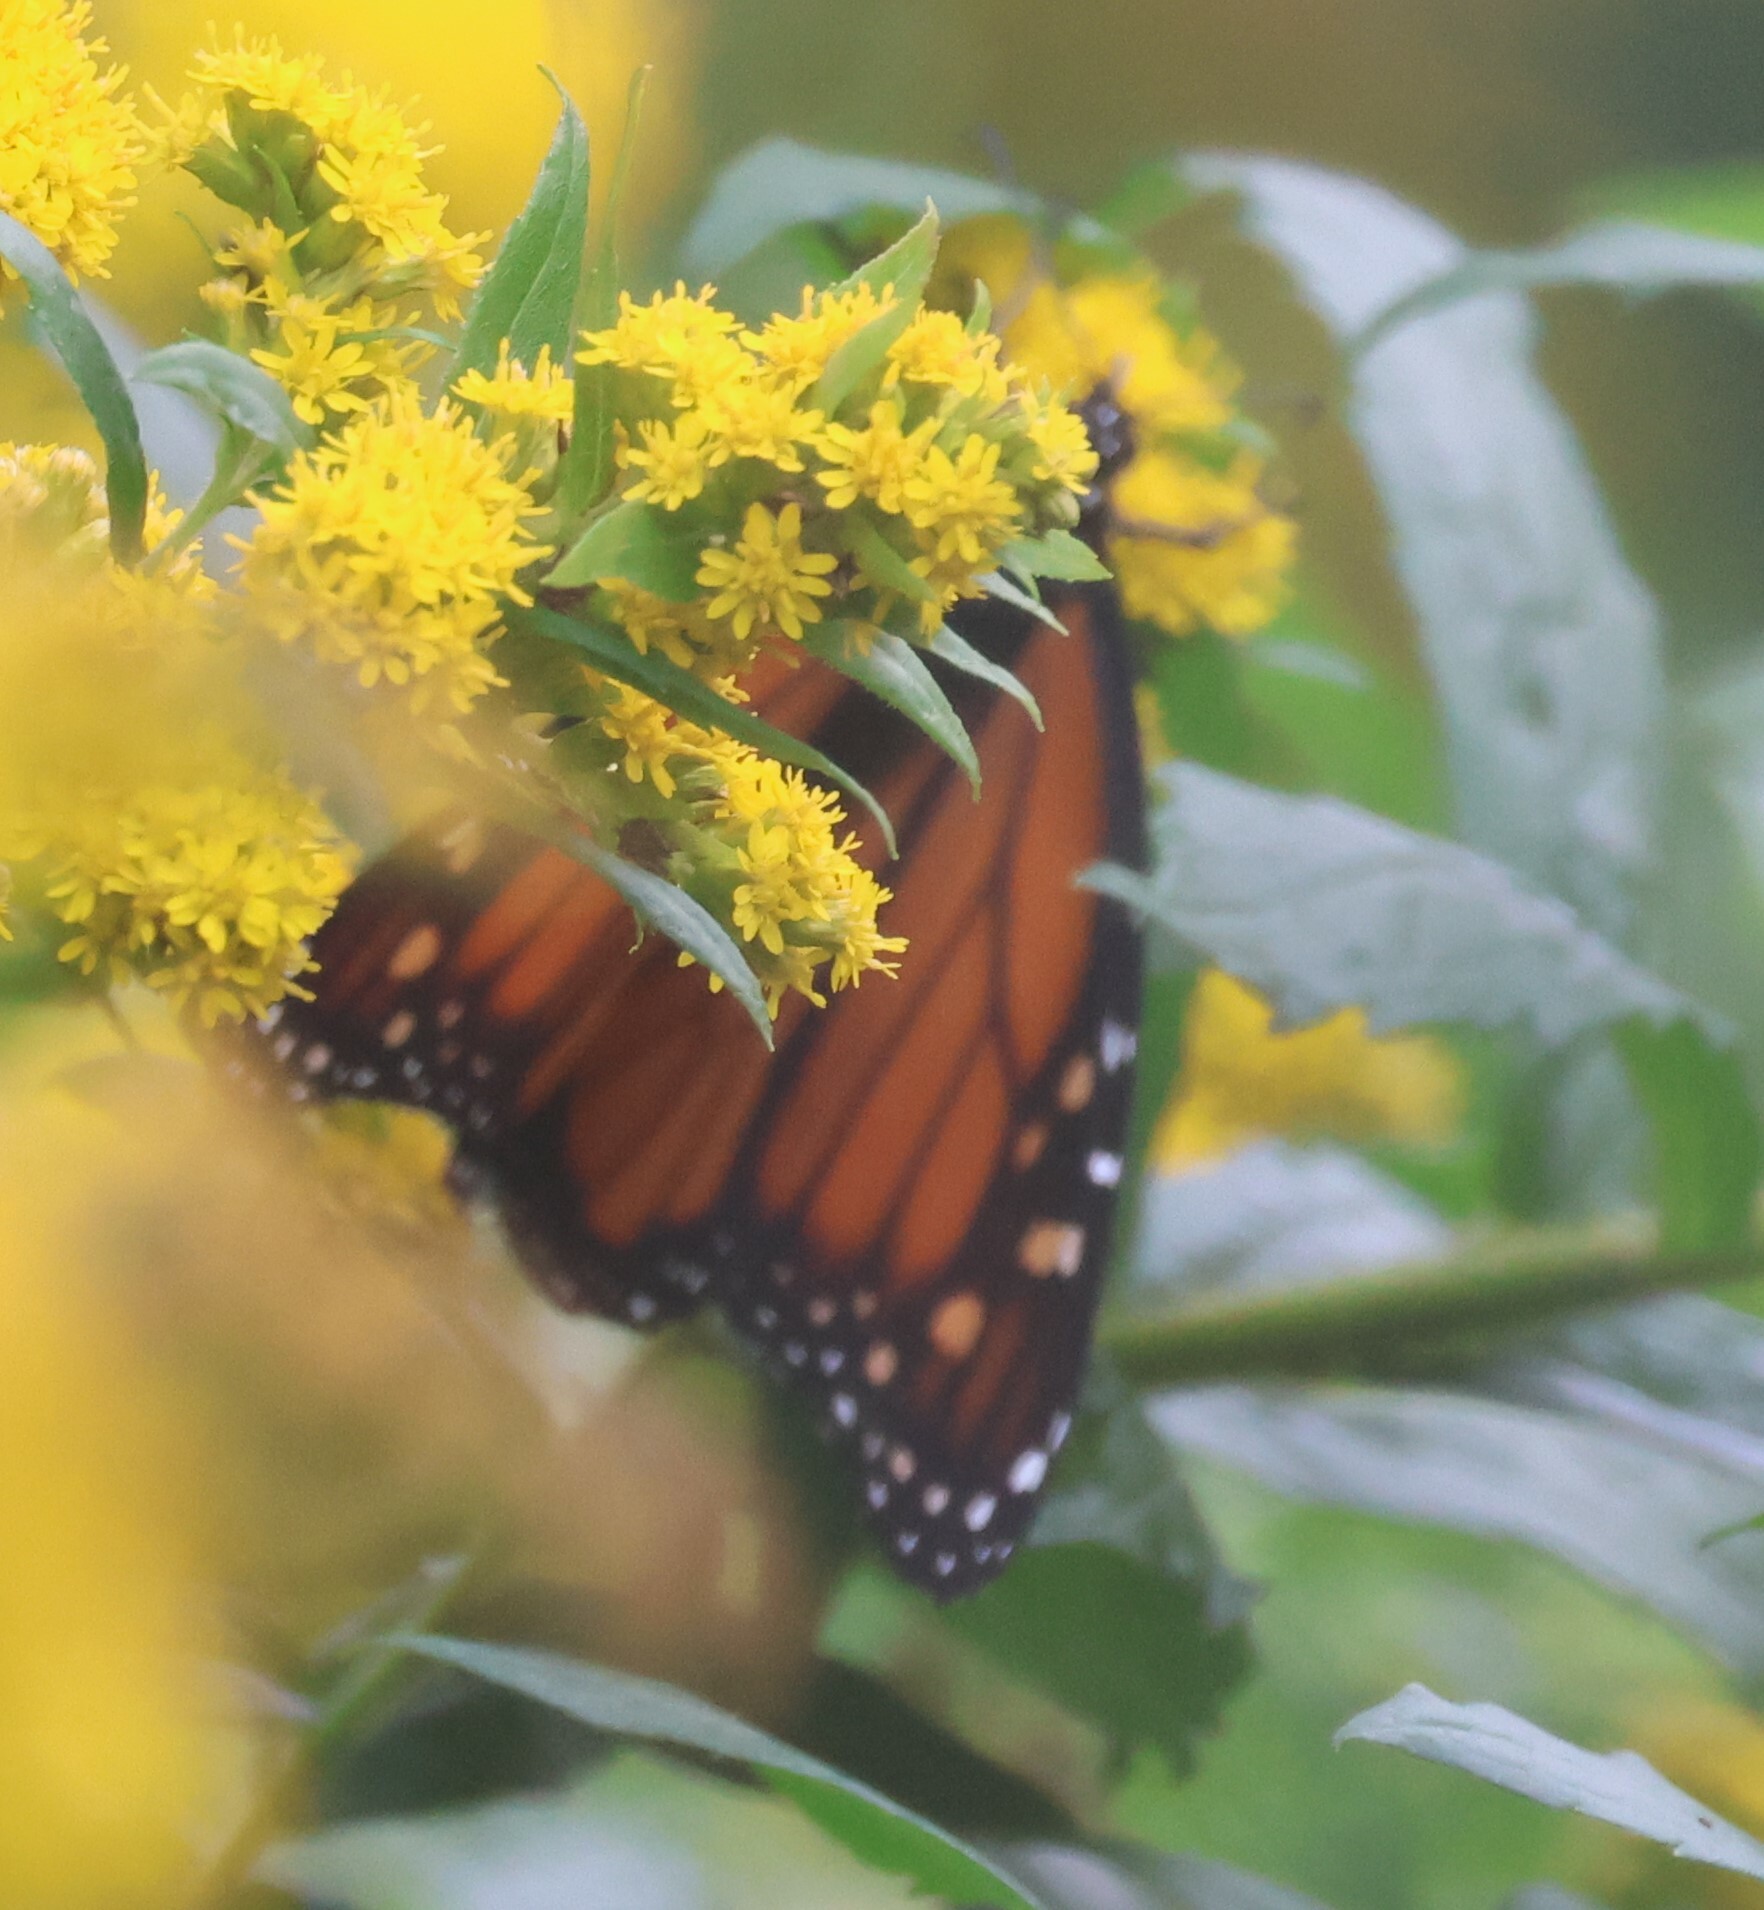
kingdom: Animalia
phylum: Arthropoda
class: Insecta
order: Lepidoptera
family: Nymphalidae
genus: Danaus
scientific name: Danaus plexippus
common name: Monarch
